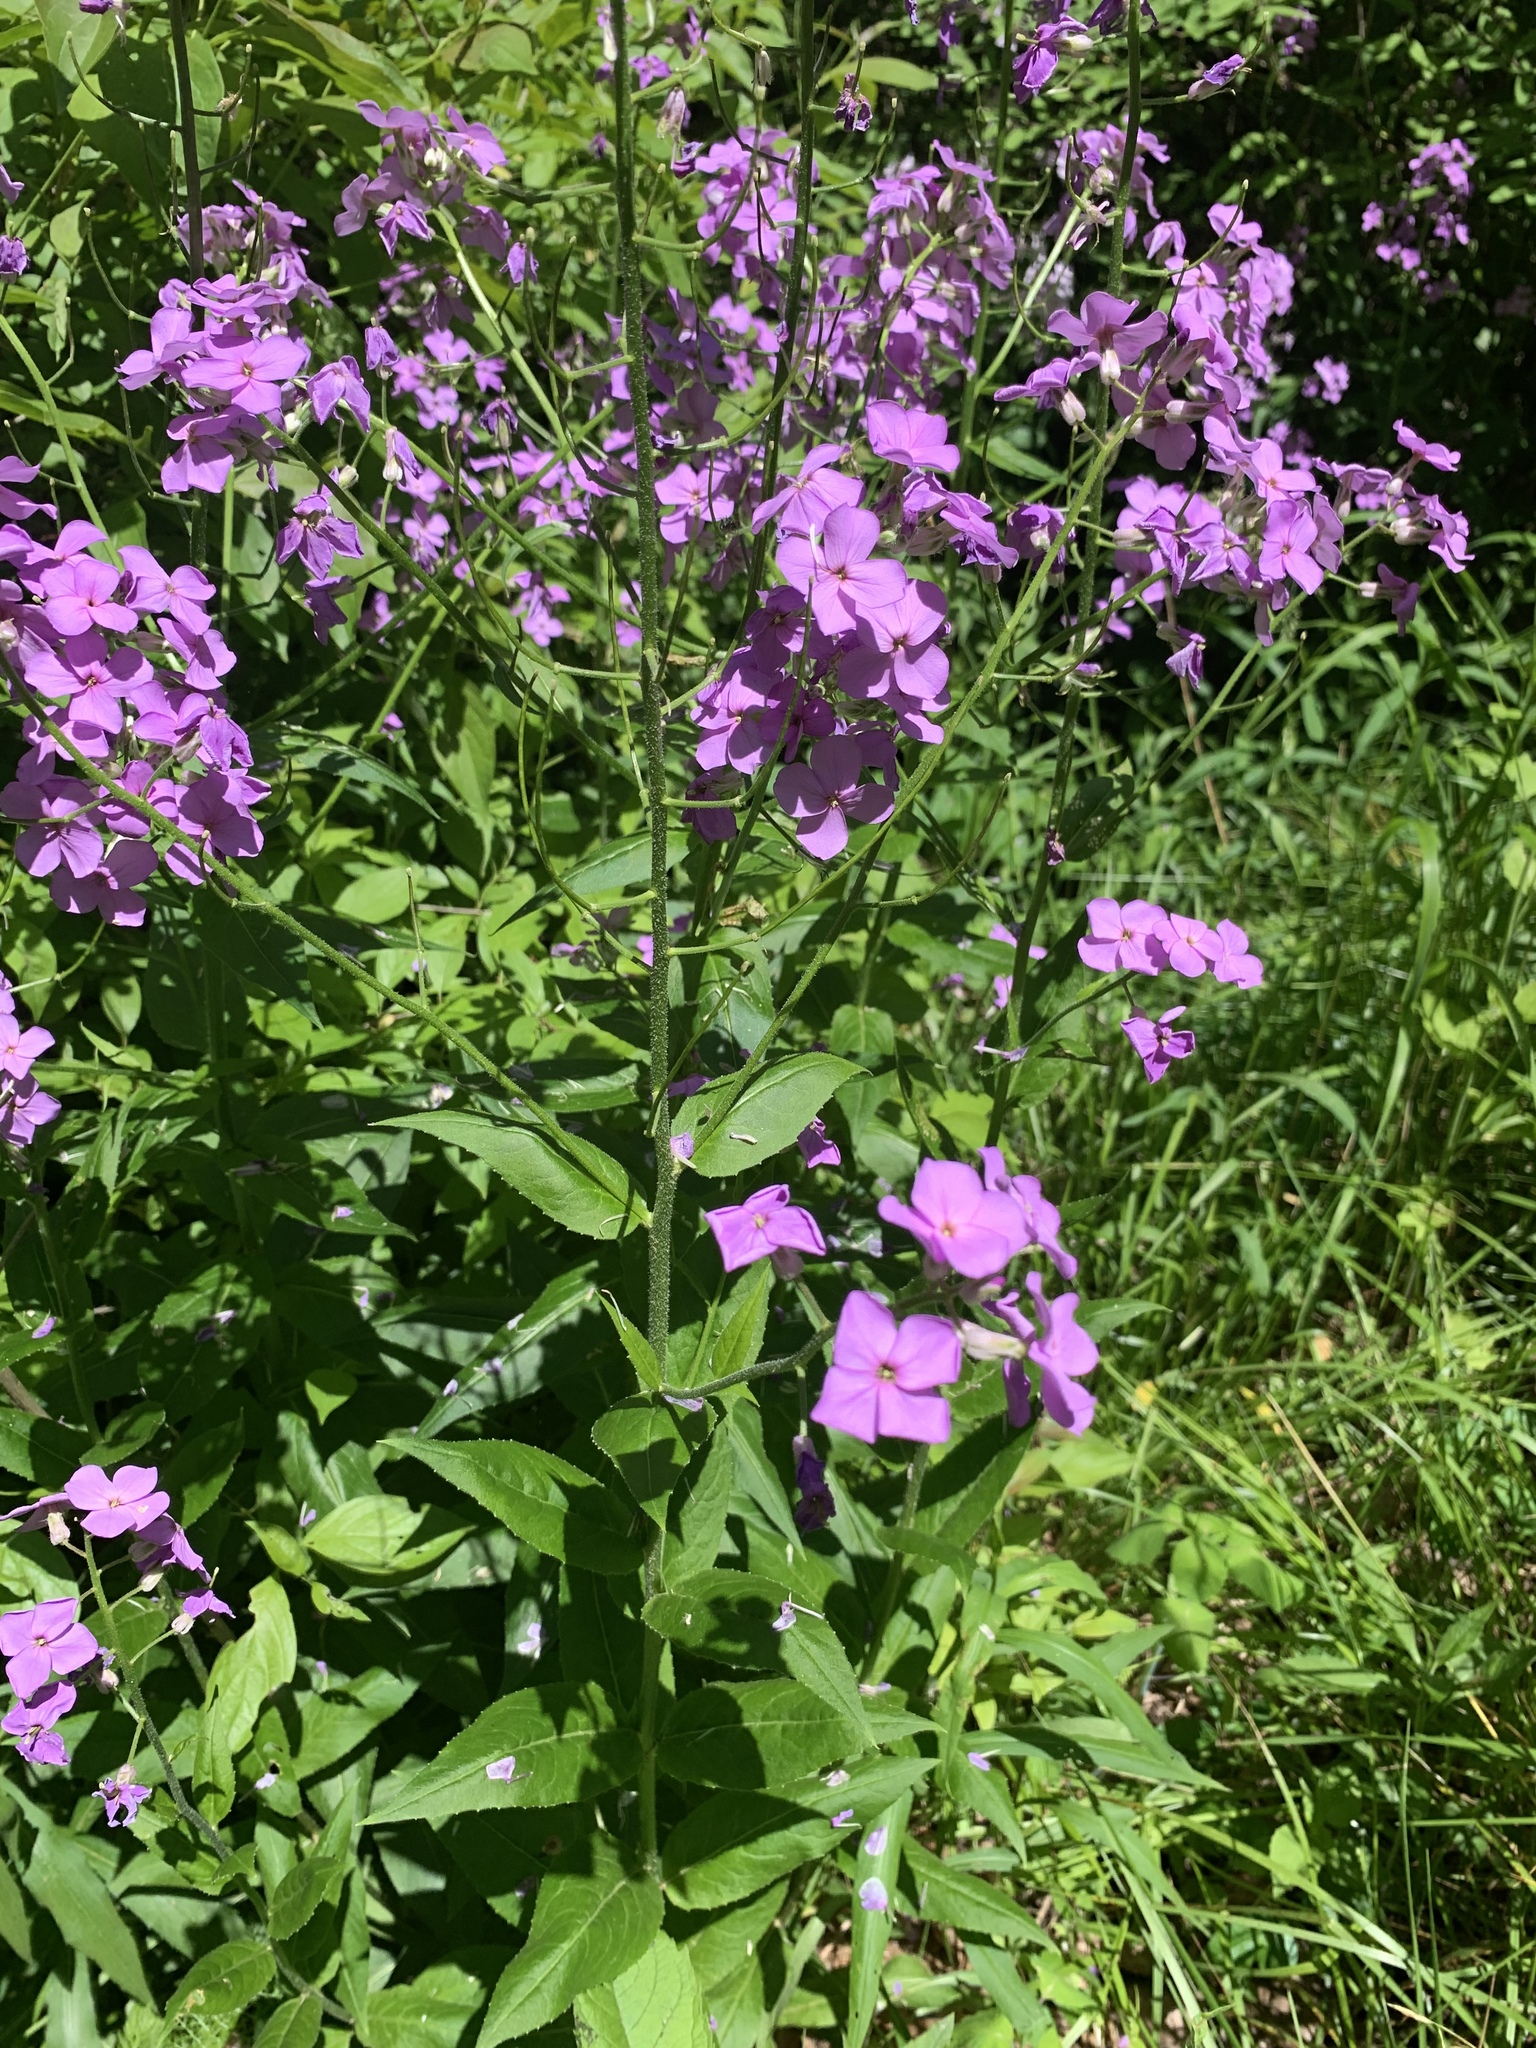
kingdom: Plantae
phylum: Tracheophyta
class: Magnoliopsida
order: Brassicales
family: Brassicaceae
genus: Hesperis
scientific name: Hesperis matronalis
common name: Dame's-violet
